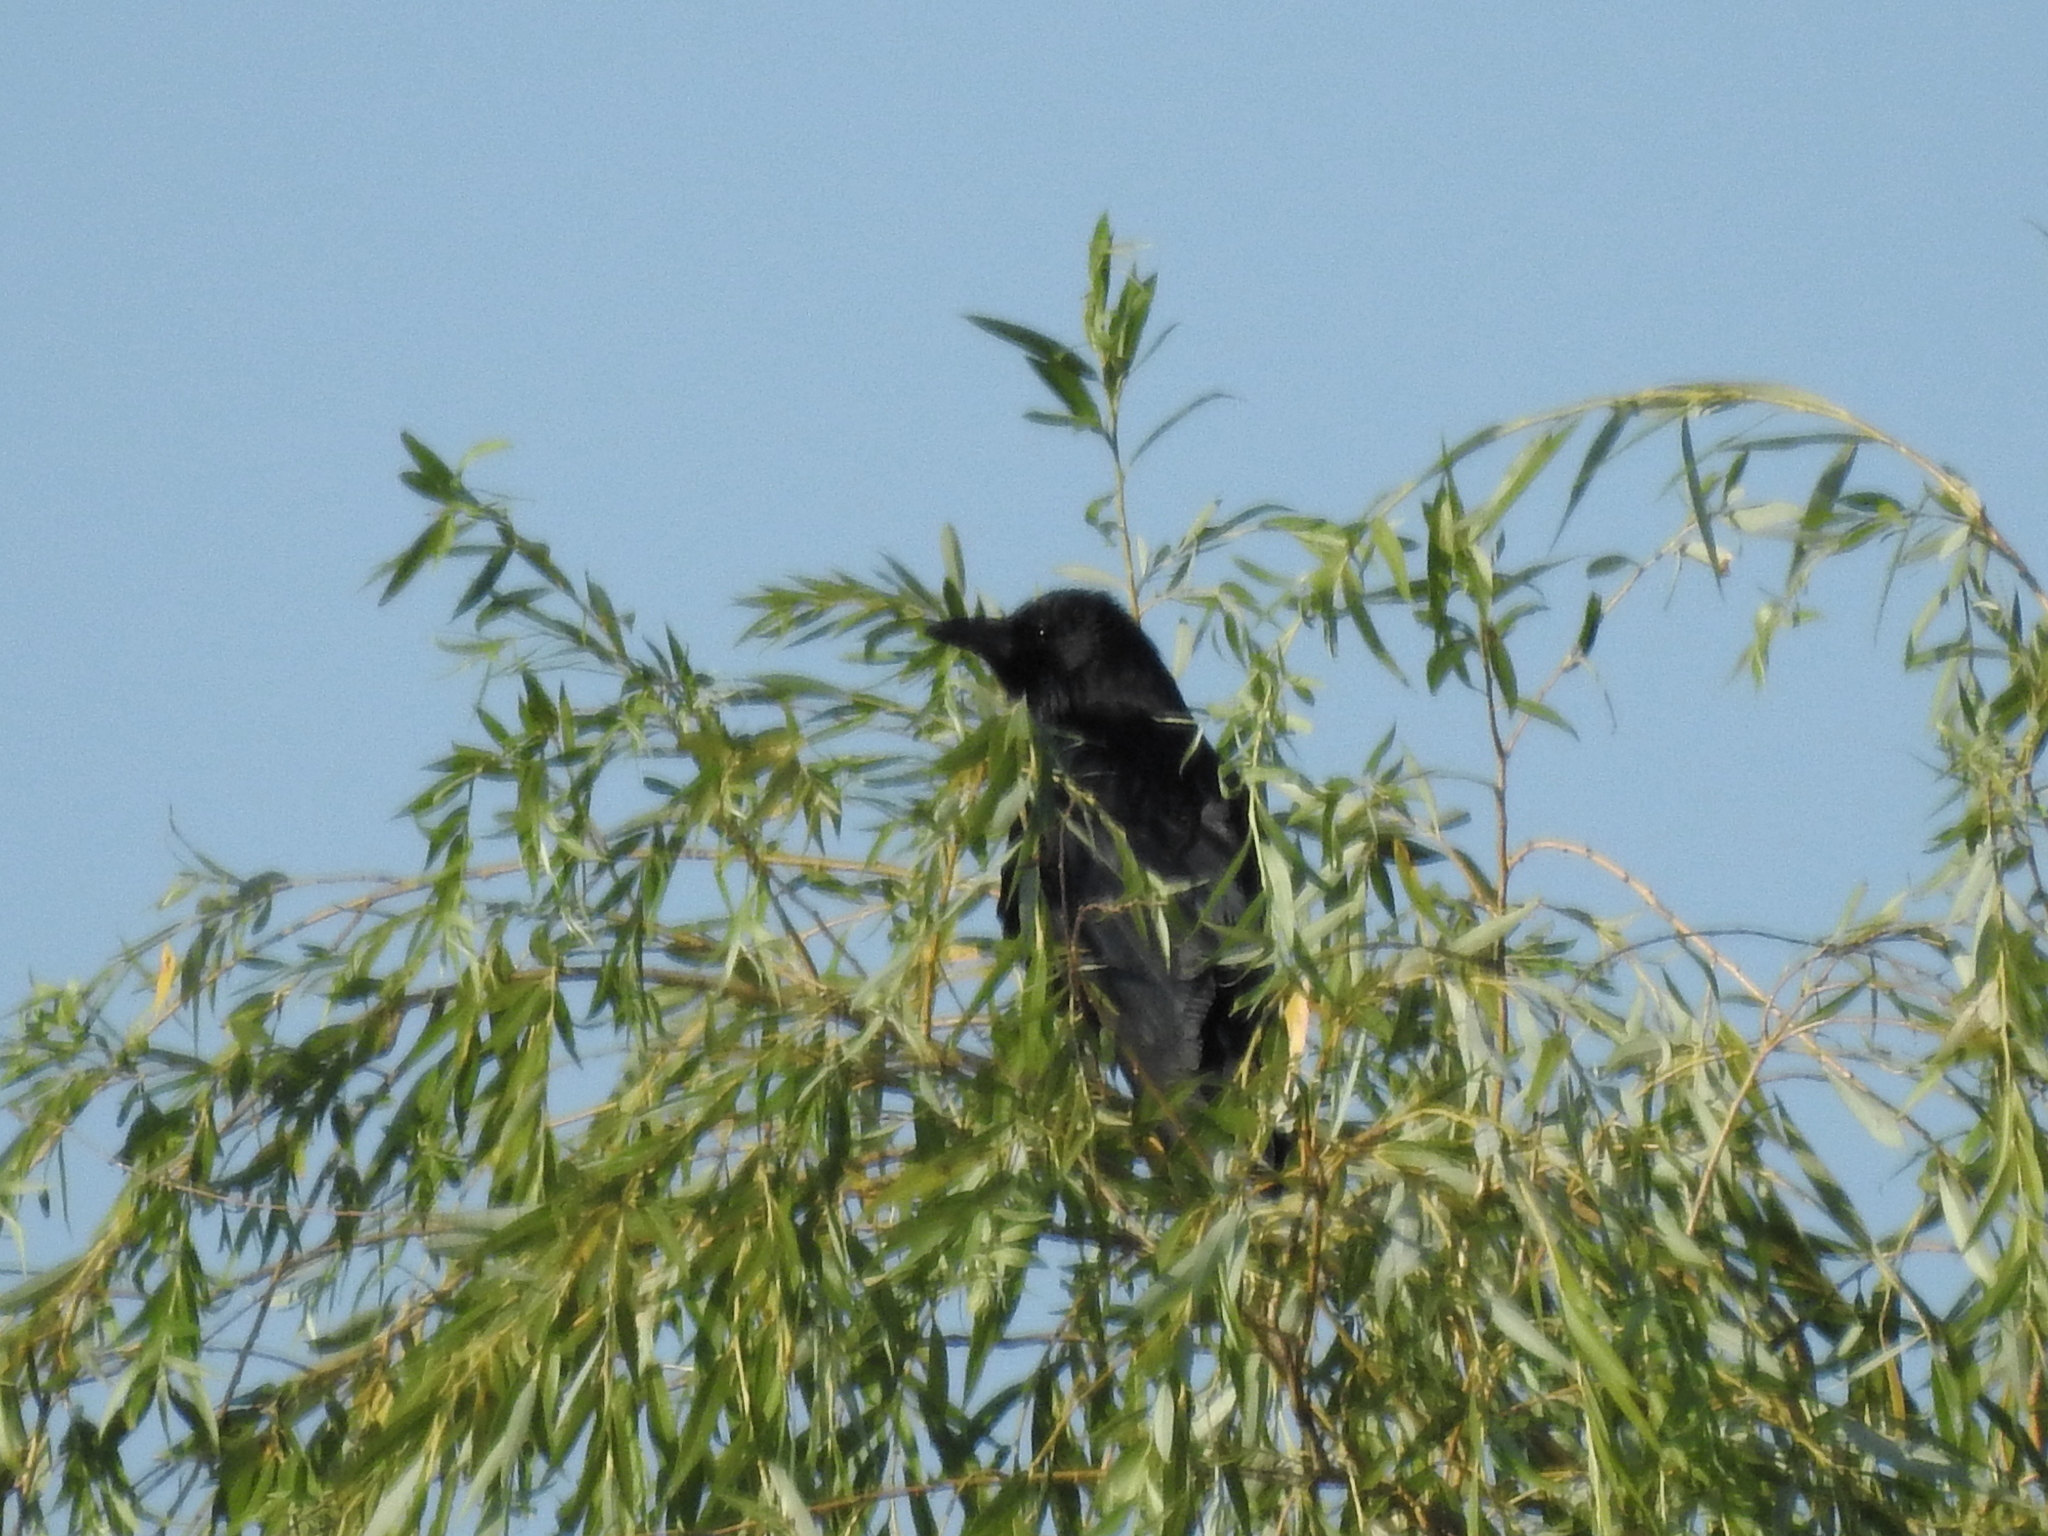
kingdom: Animalia
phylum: Chordata
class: Aves
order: Passeriformes
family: Corvidae
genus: Corvus
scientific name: Corvus corone
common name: Carrion crow
